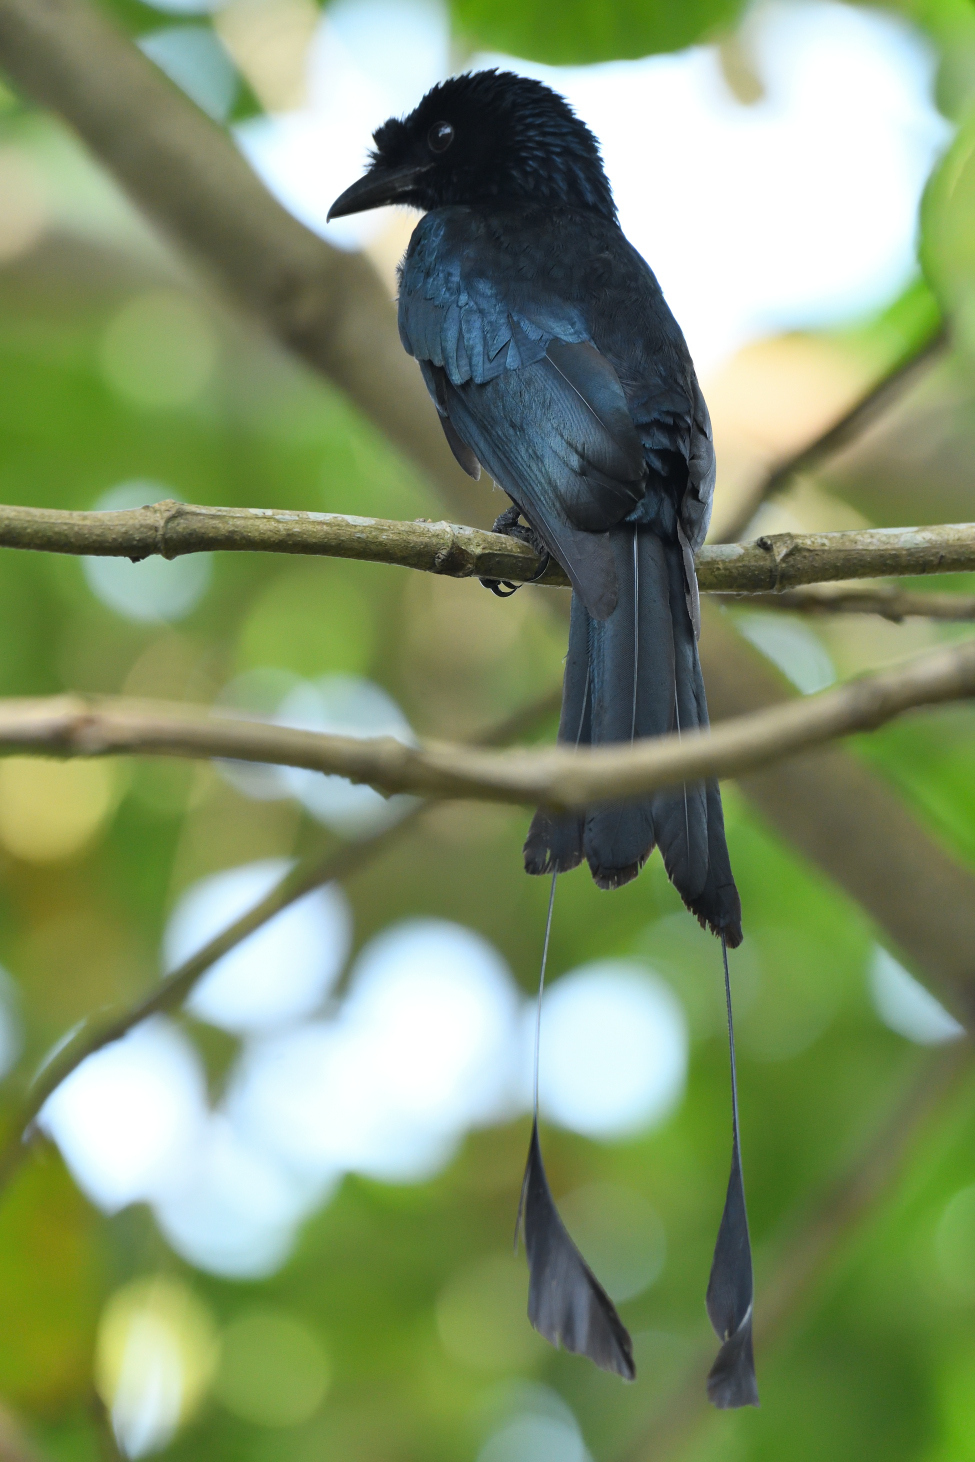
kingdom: Animalia
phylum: Chordata
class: Aves
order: Passeriformes
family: Dicruridae
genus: Dicrurus
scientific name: Dicrurus paradiseus
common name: Greater racket-tailed drongo
